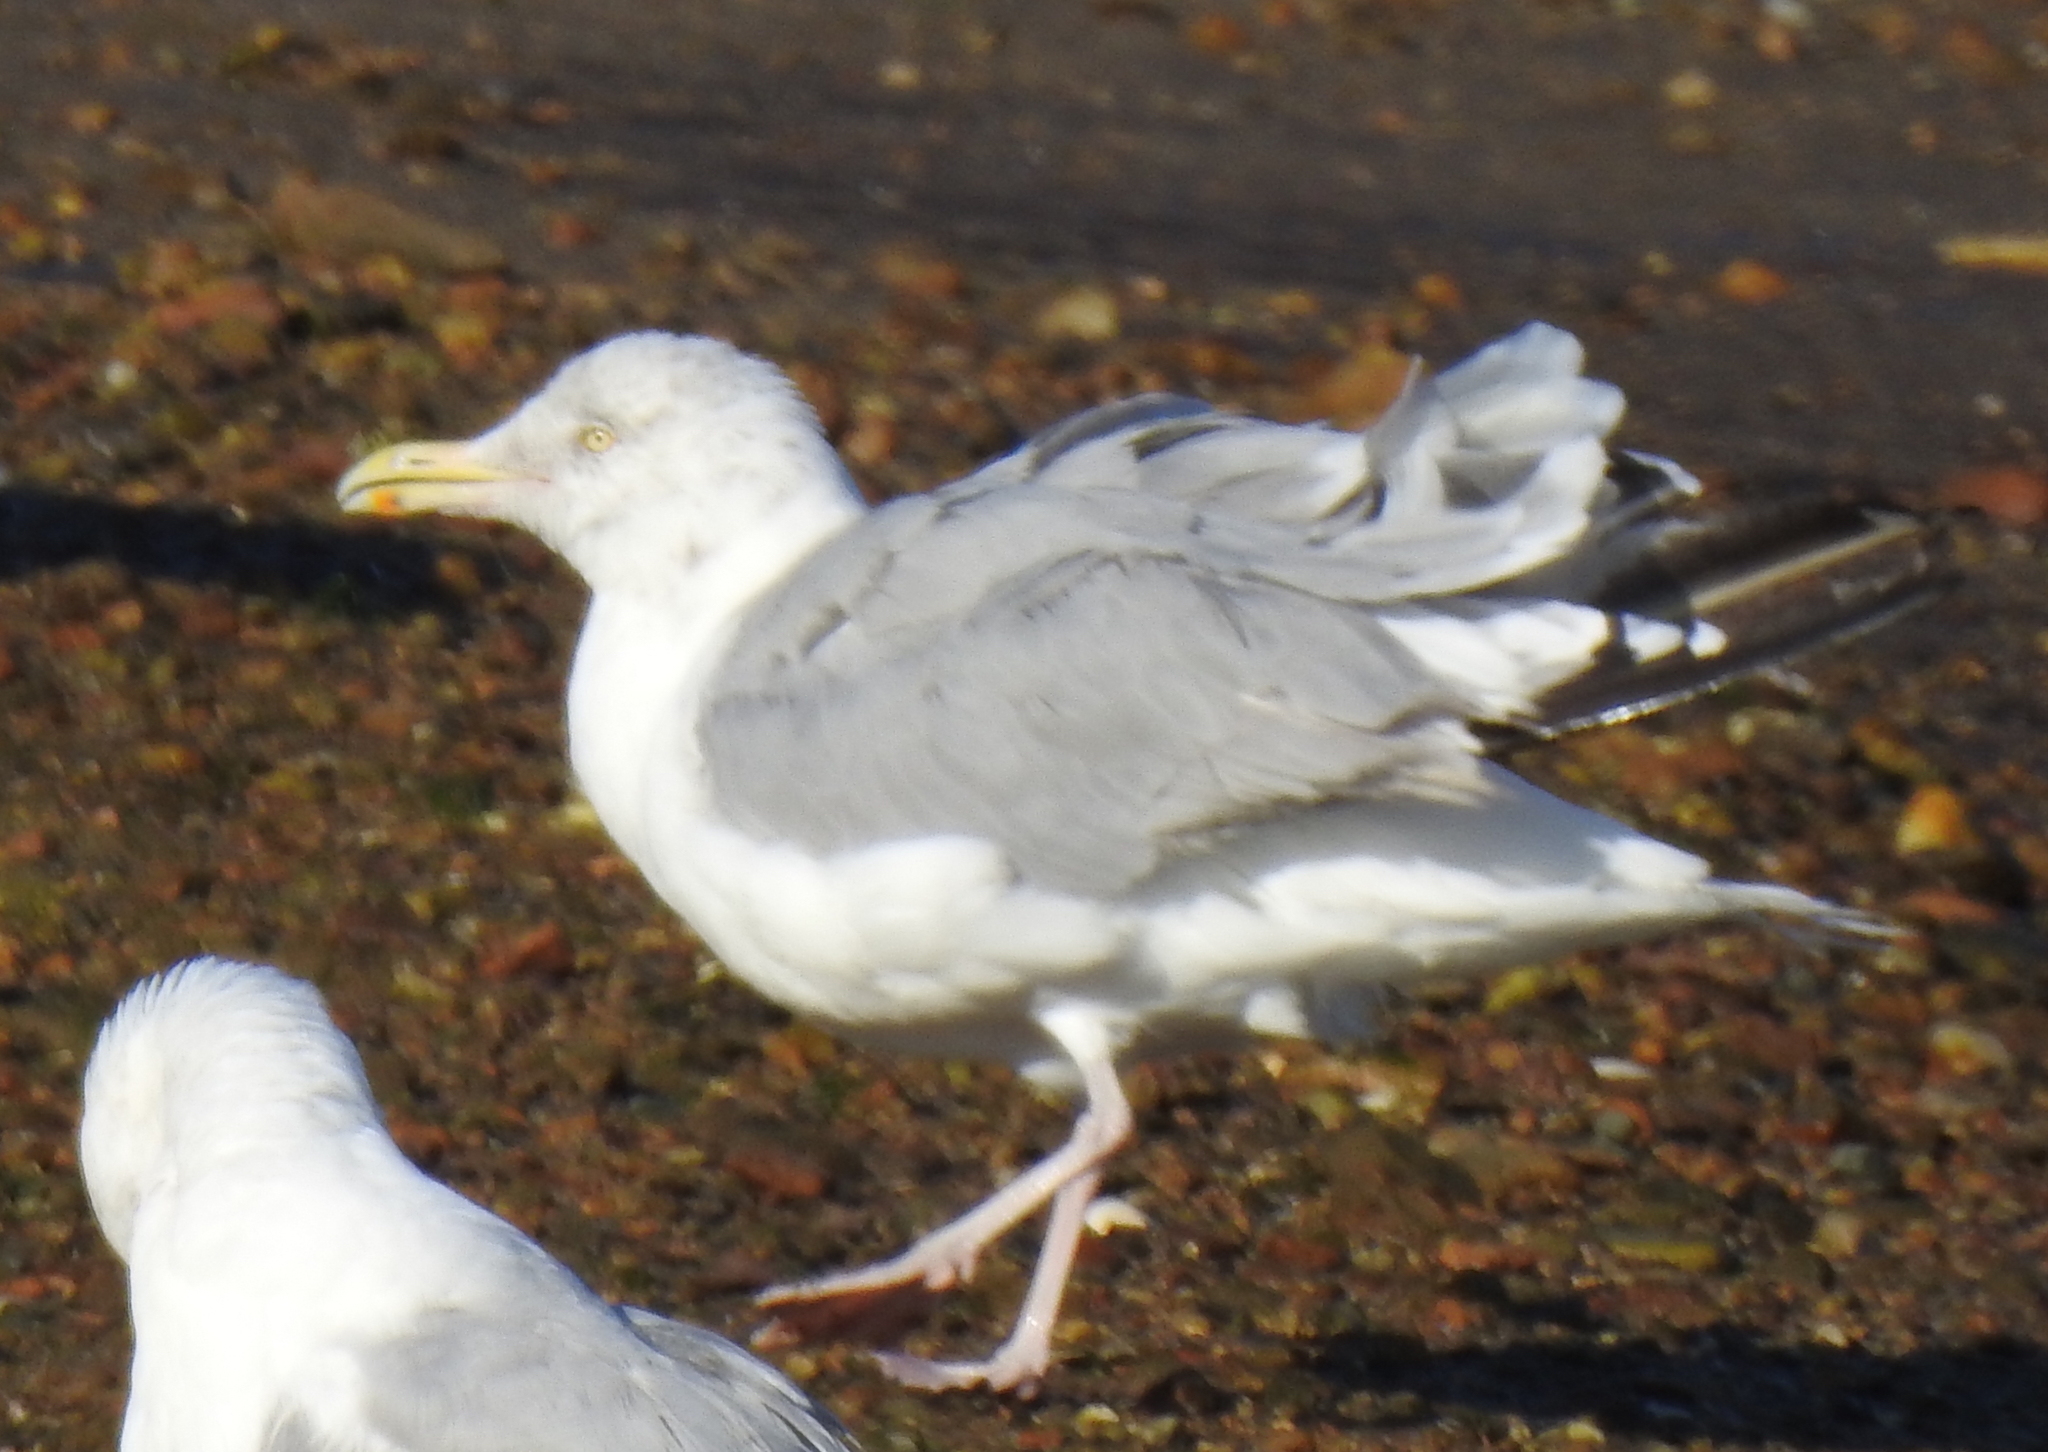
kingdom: Animalia
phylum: Chordata
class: Aves
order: Charadriiformes
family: Laridae
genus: Larus
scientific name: Larus argentatus
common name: Herring gull
